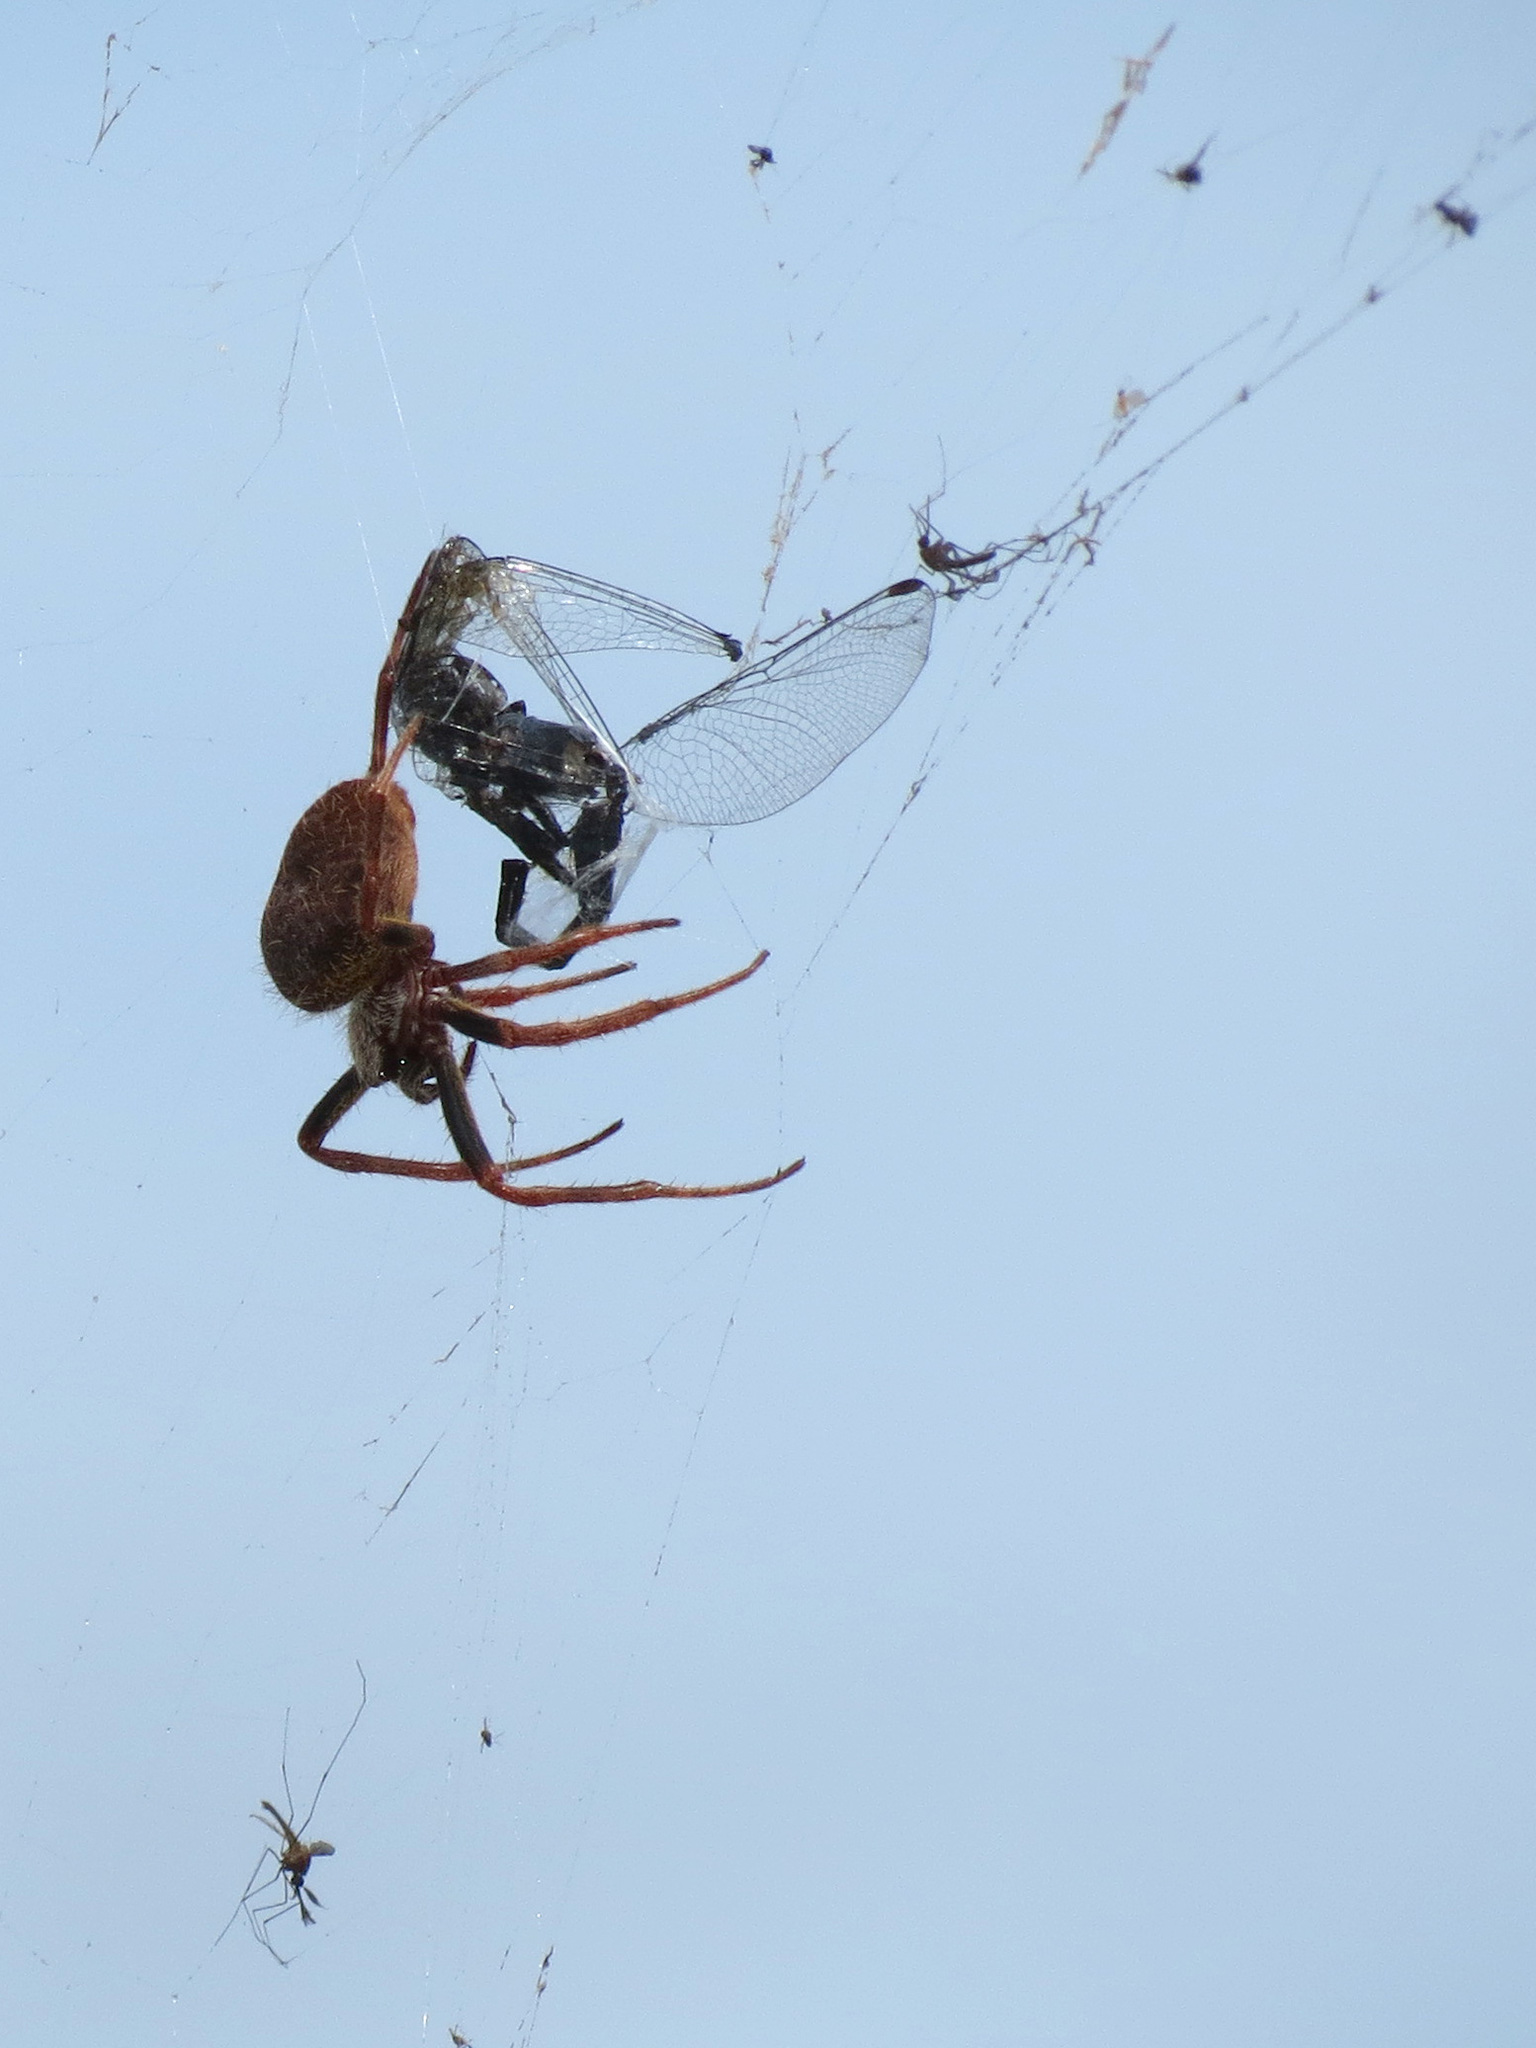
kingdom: Animalia
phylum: Arthropoda
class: Arachnida
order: Araneae
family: Araneidae
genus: Eriophora
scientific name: Eriophora ravilla
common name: Orb weavers
